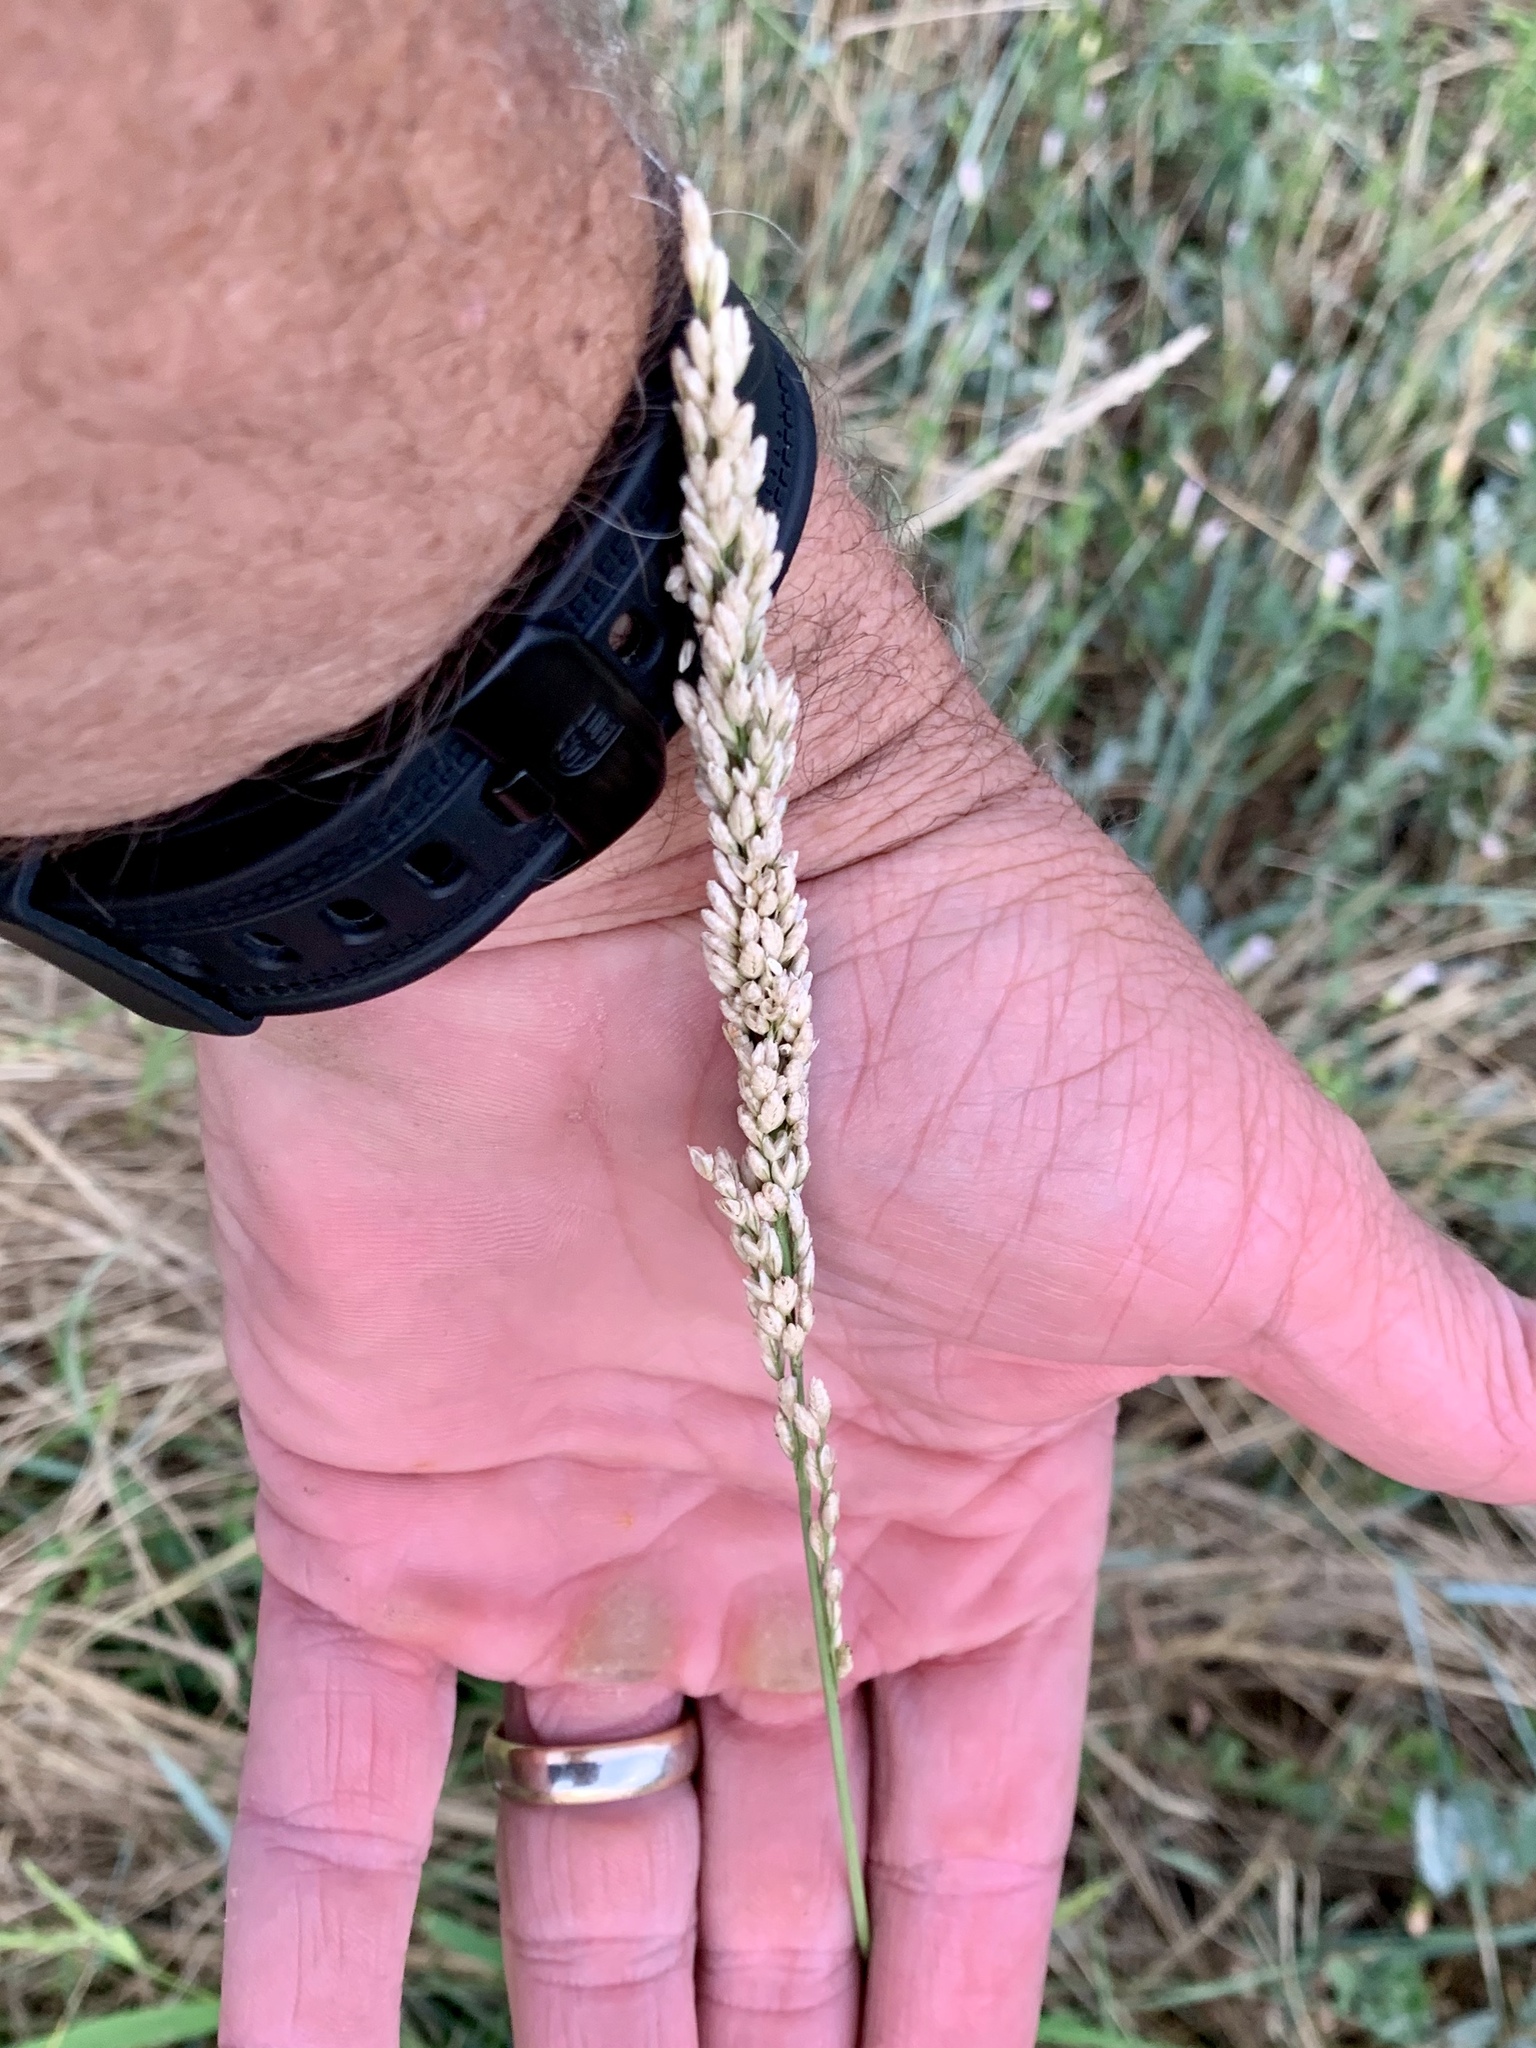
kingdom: Plantae
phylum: Tracheophyta
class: Liliopsida
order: Poales
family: Poaceae
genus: Tridens
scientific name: Tridens albescens
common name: White tridens
